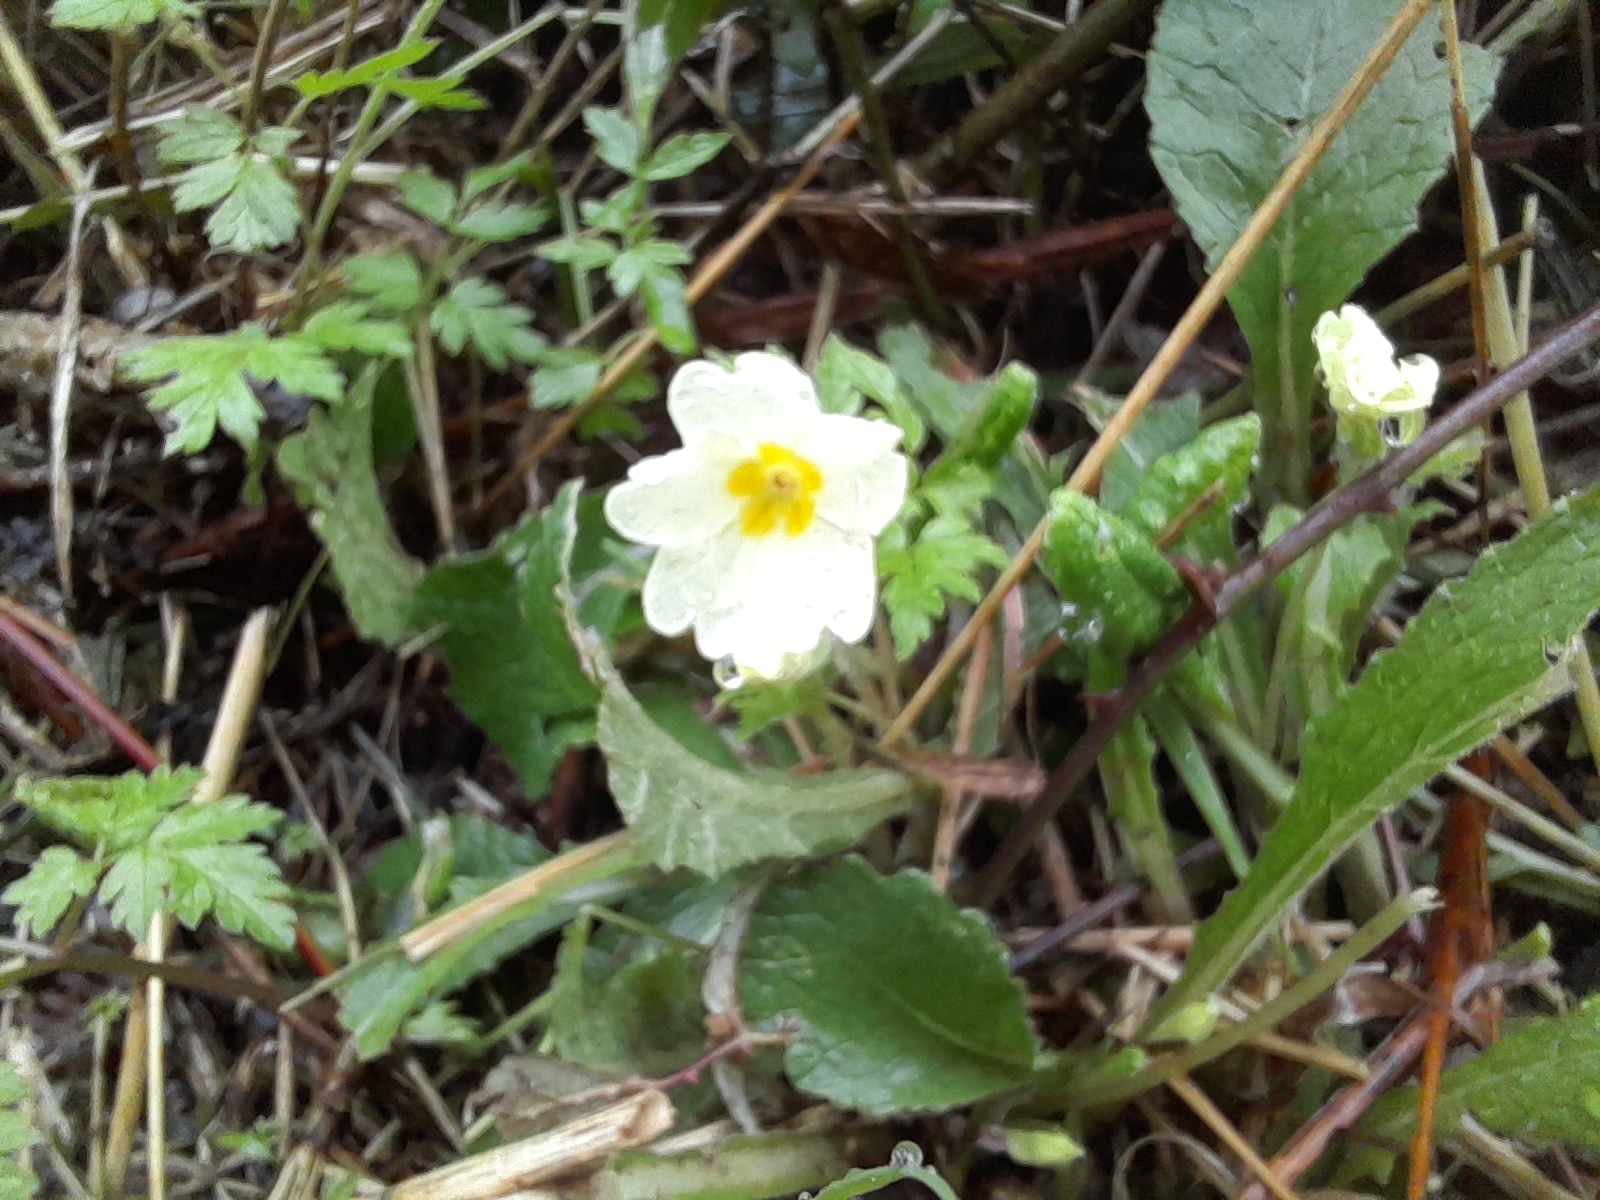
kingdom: Plantae
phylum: Tracheophyta
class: Magnoliopsida
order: Ericales
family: Primulaceae
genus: Primula
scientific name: Primula vulgaris
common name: Primrose
